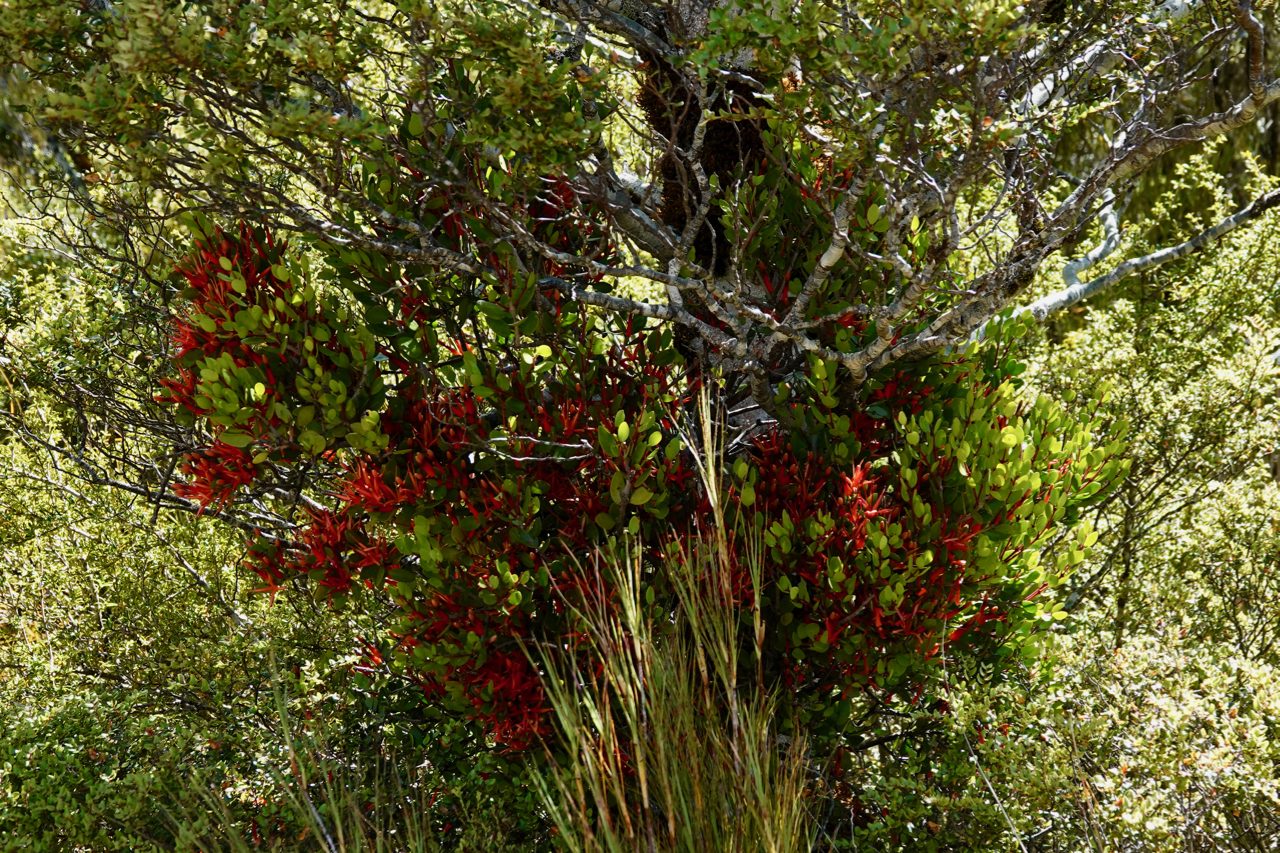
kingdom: Plantae
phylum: Tracheophyta
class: Magnoliopsida
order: Santalales
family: Loranthaceae
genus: Peraxilla
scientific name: Peraxilla tetrapetala
